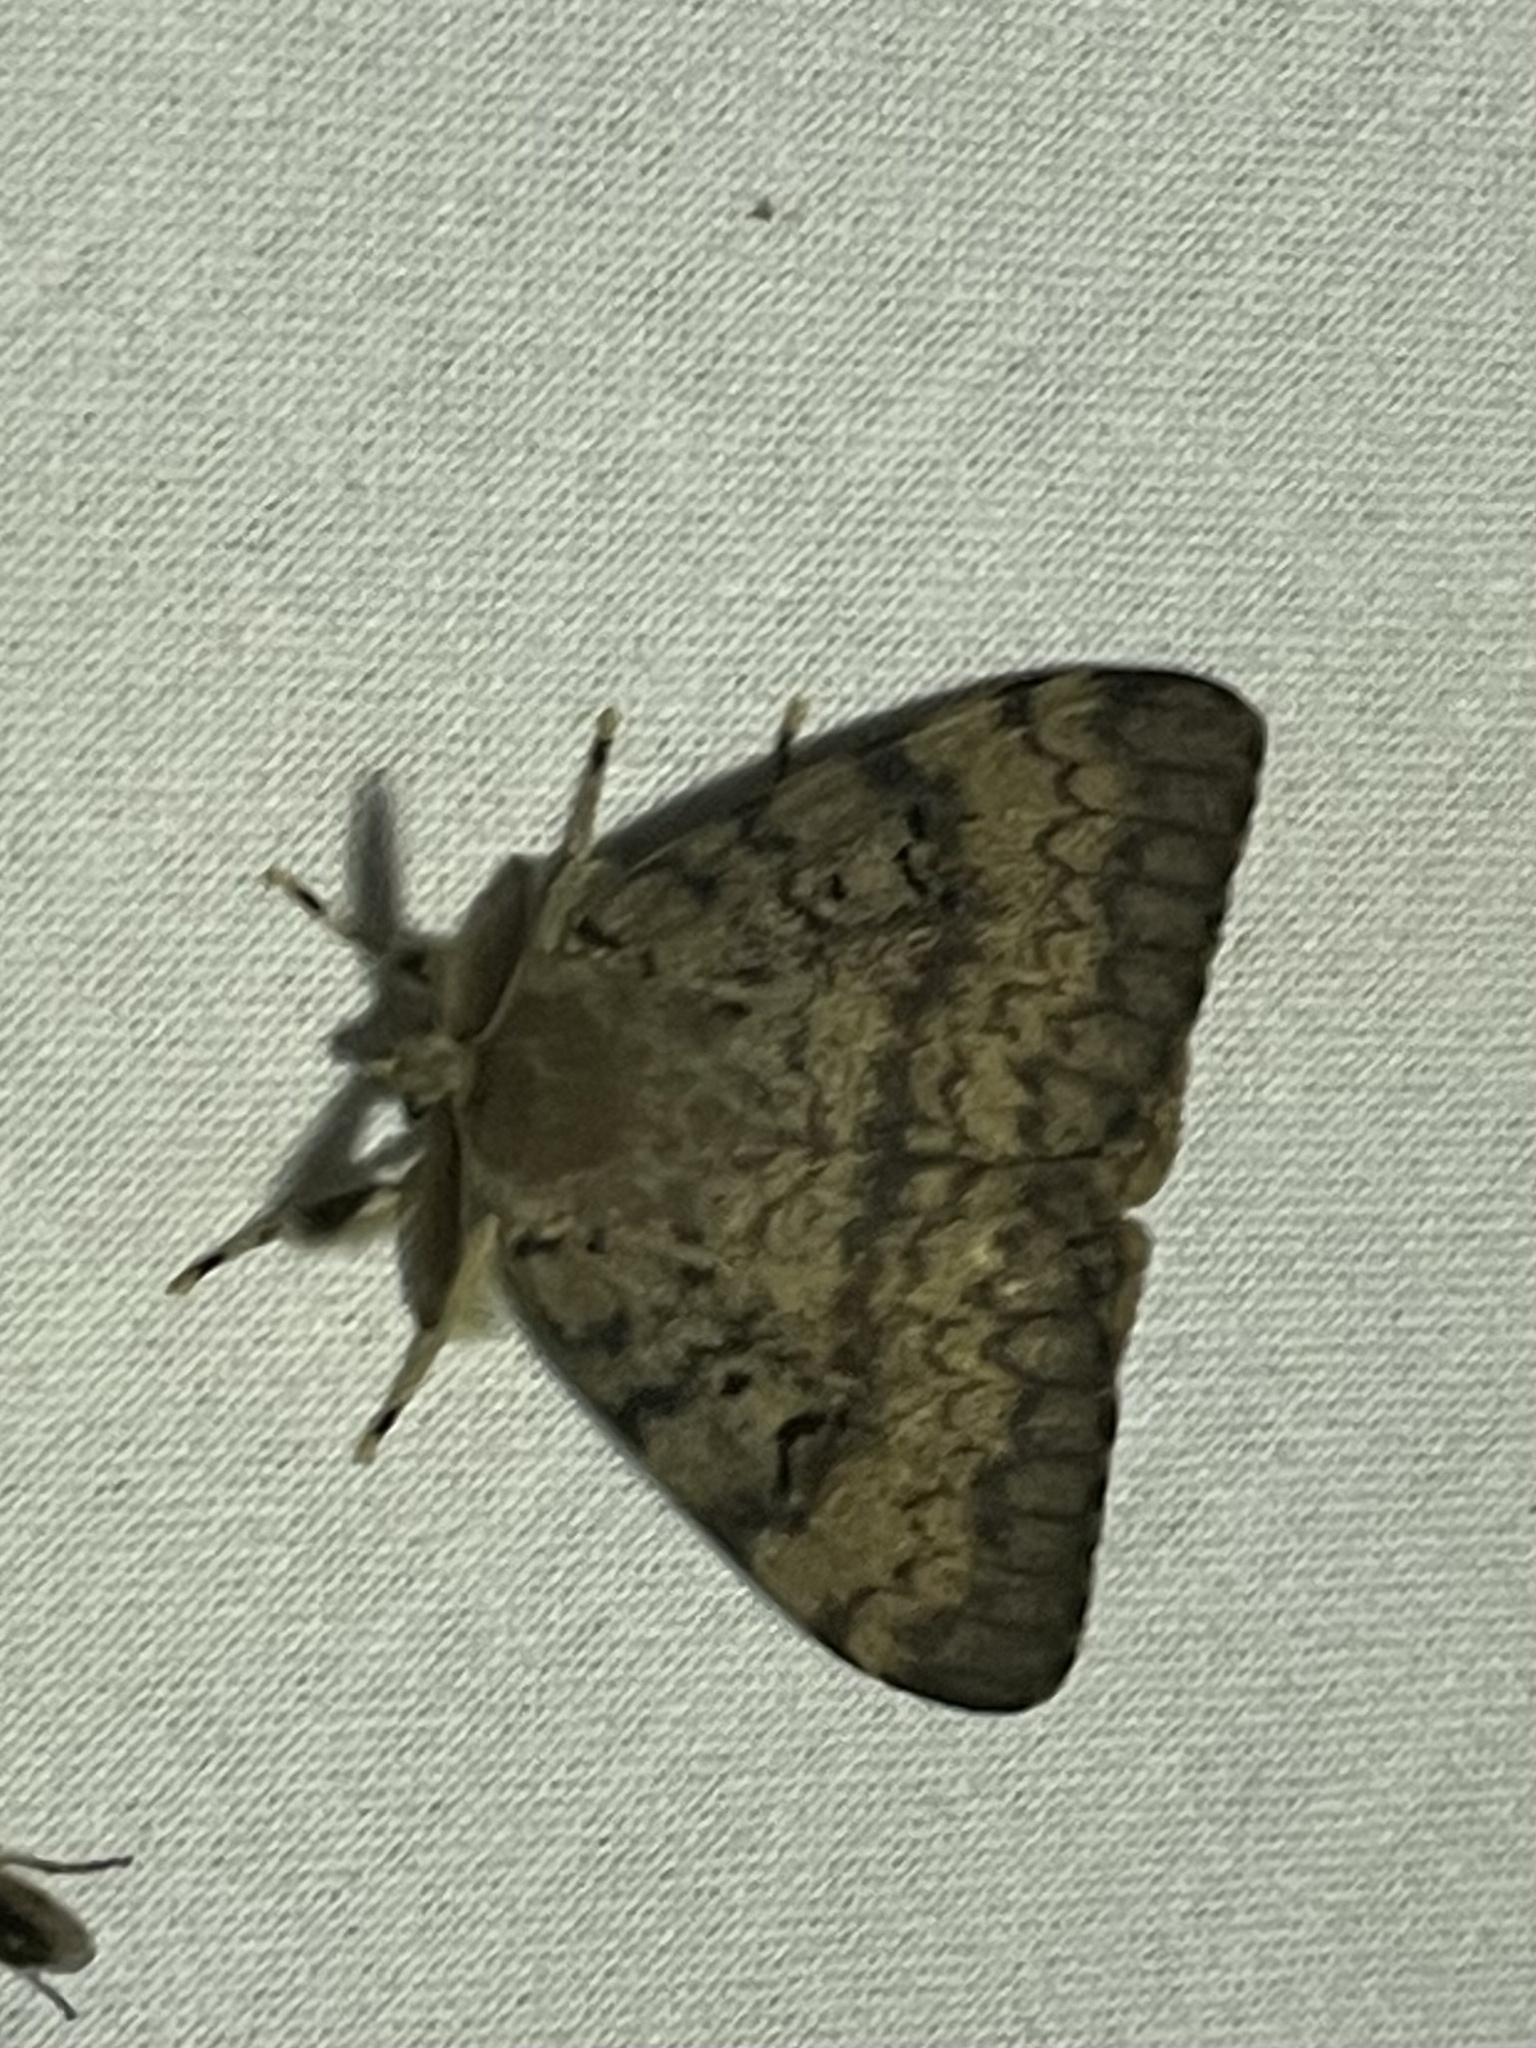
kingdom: Animalia
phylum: Arthropoda
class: Insecta
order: Lepidoptera
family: Erebidae
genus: Lymantria
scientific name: Lymantria dispar
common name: Gypsy moth
